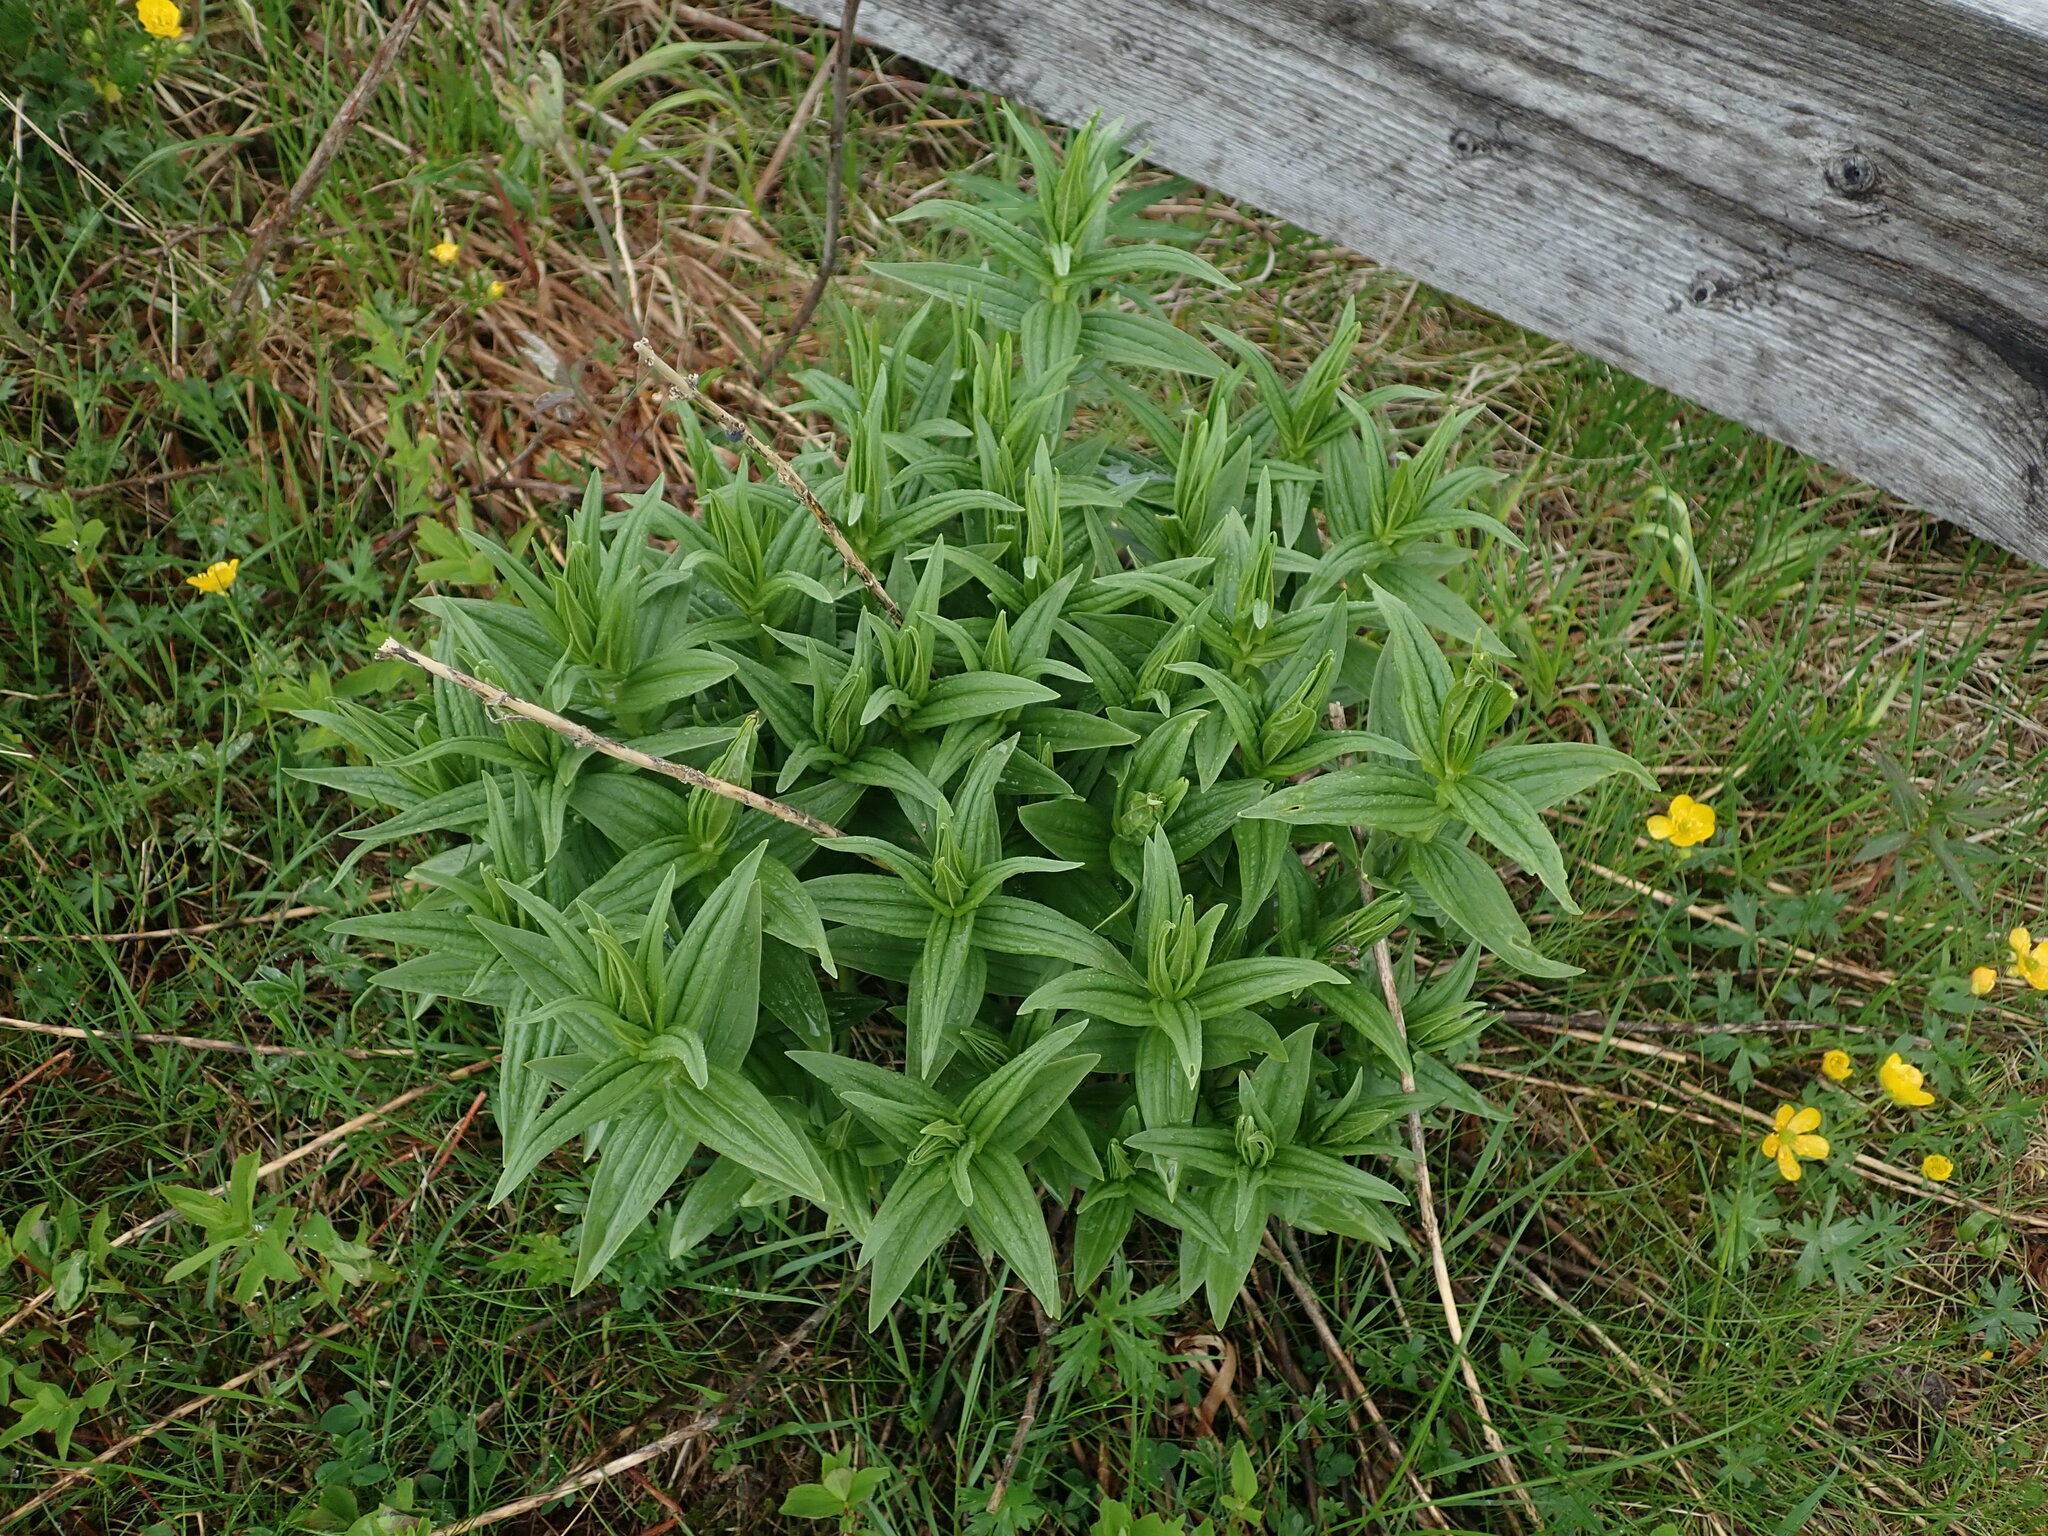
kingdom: Plantae
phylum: Tracheophyta
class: Magnoliopsida
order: Gentianales
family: Gentianaceae
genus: Gentiana
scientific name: Gentiana asclepiadea
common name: Willow gentian
